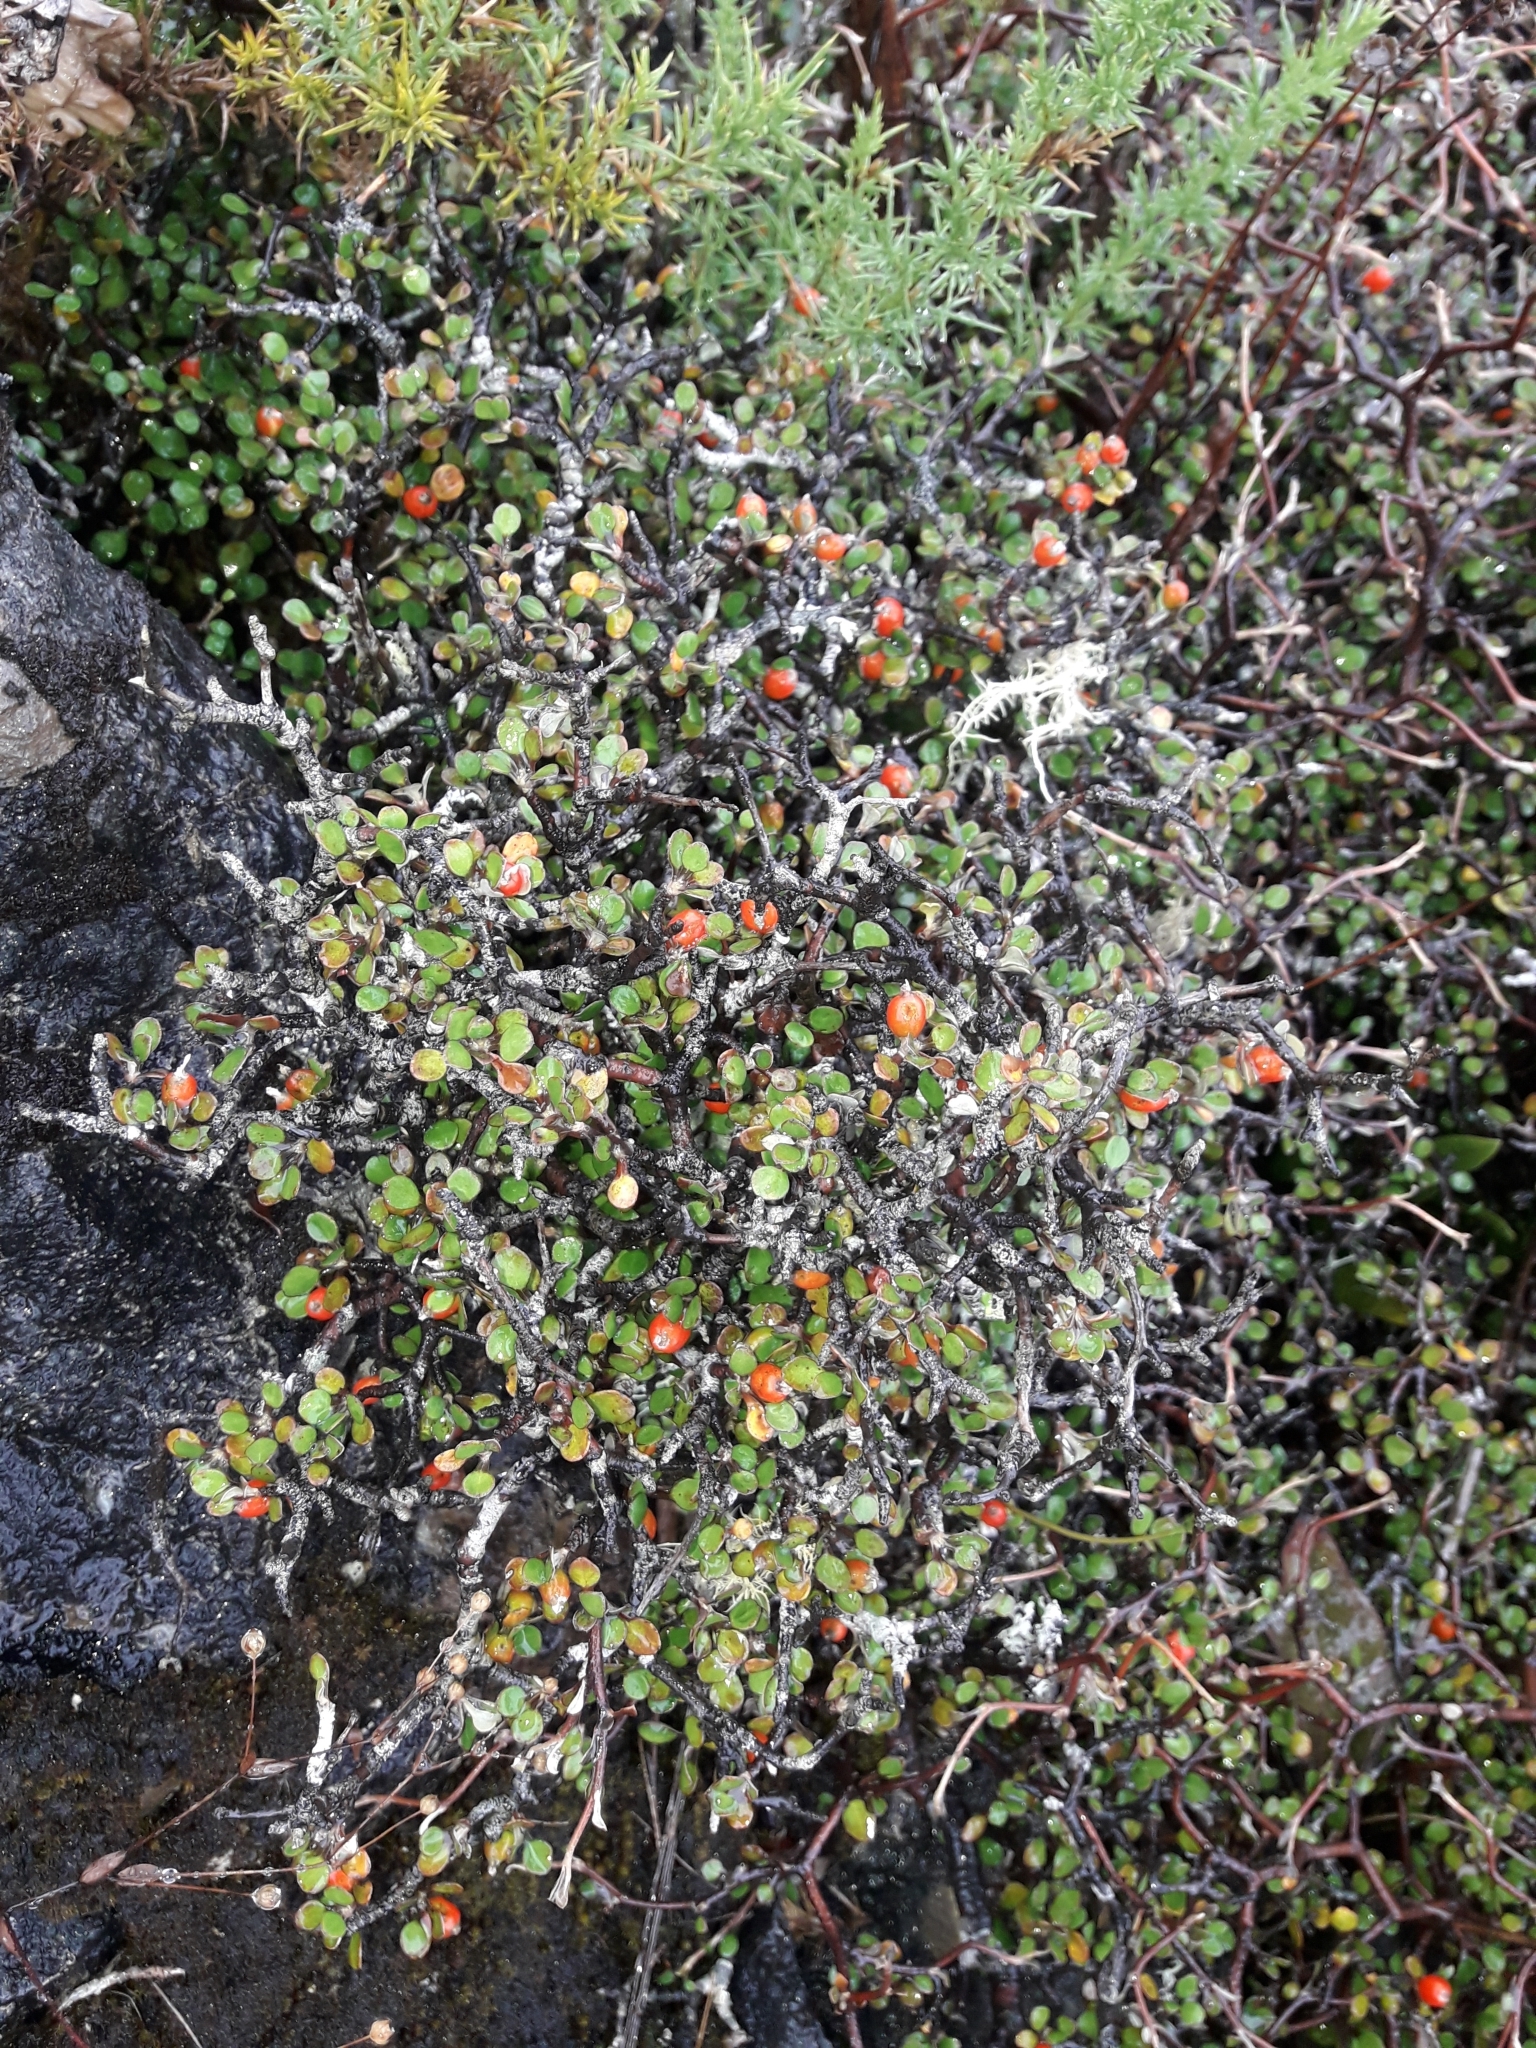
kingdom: Plantae
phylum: Tracheophyta
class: Magnoliopsida
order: Asterales
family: Argophyllaceae
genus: Corokia
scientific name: Corokia cotoneaster
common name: Wire nettingbush
